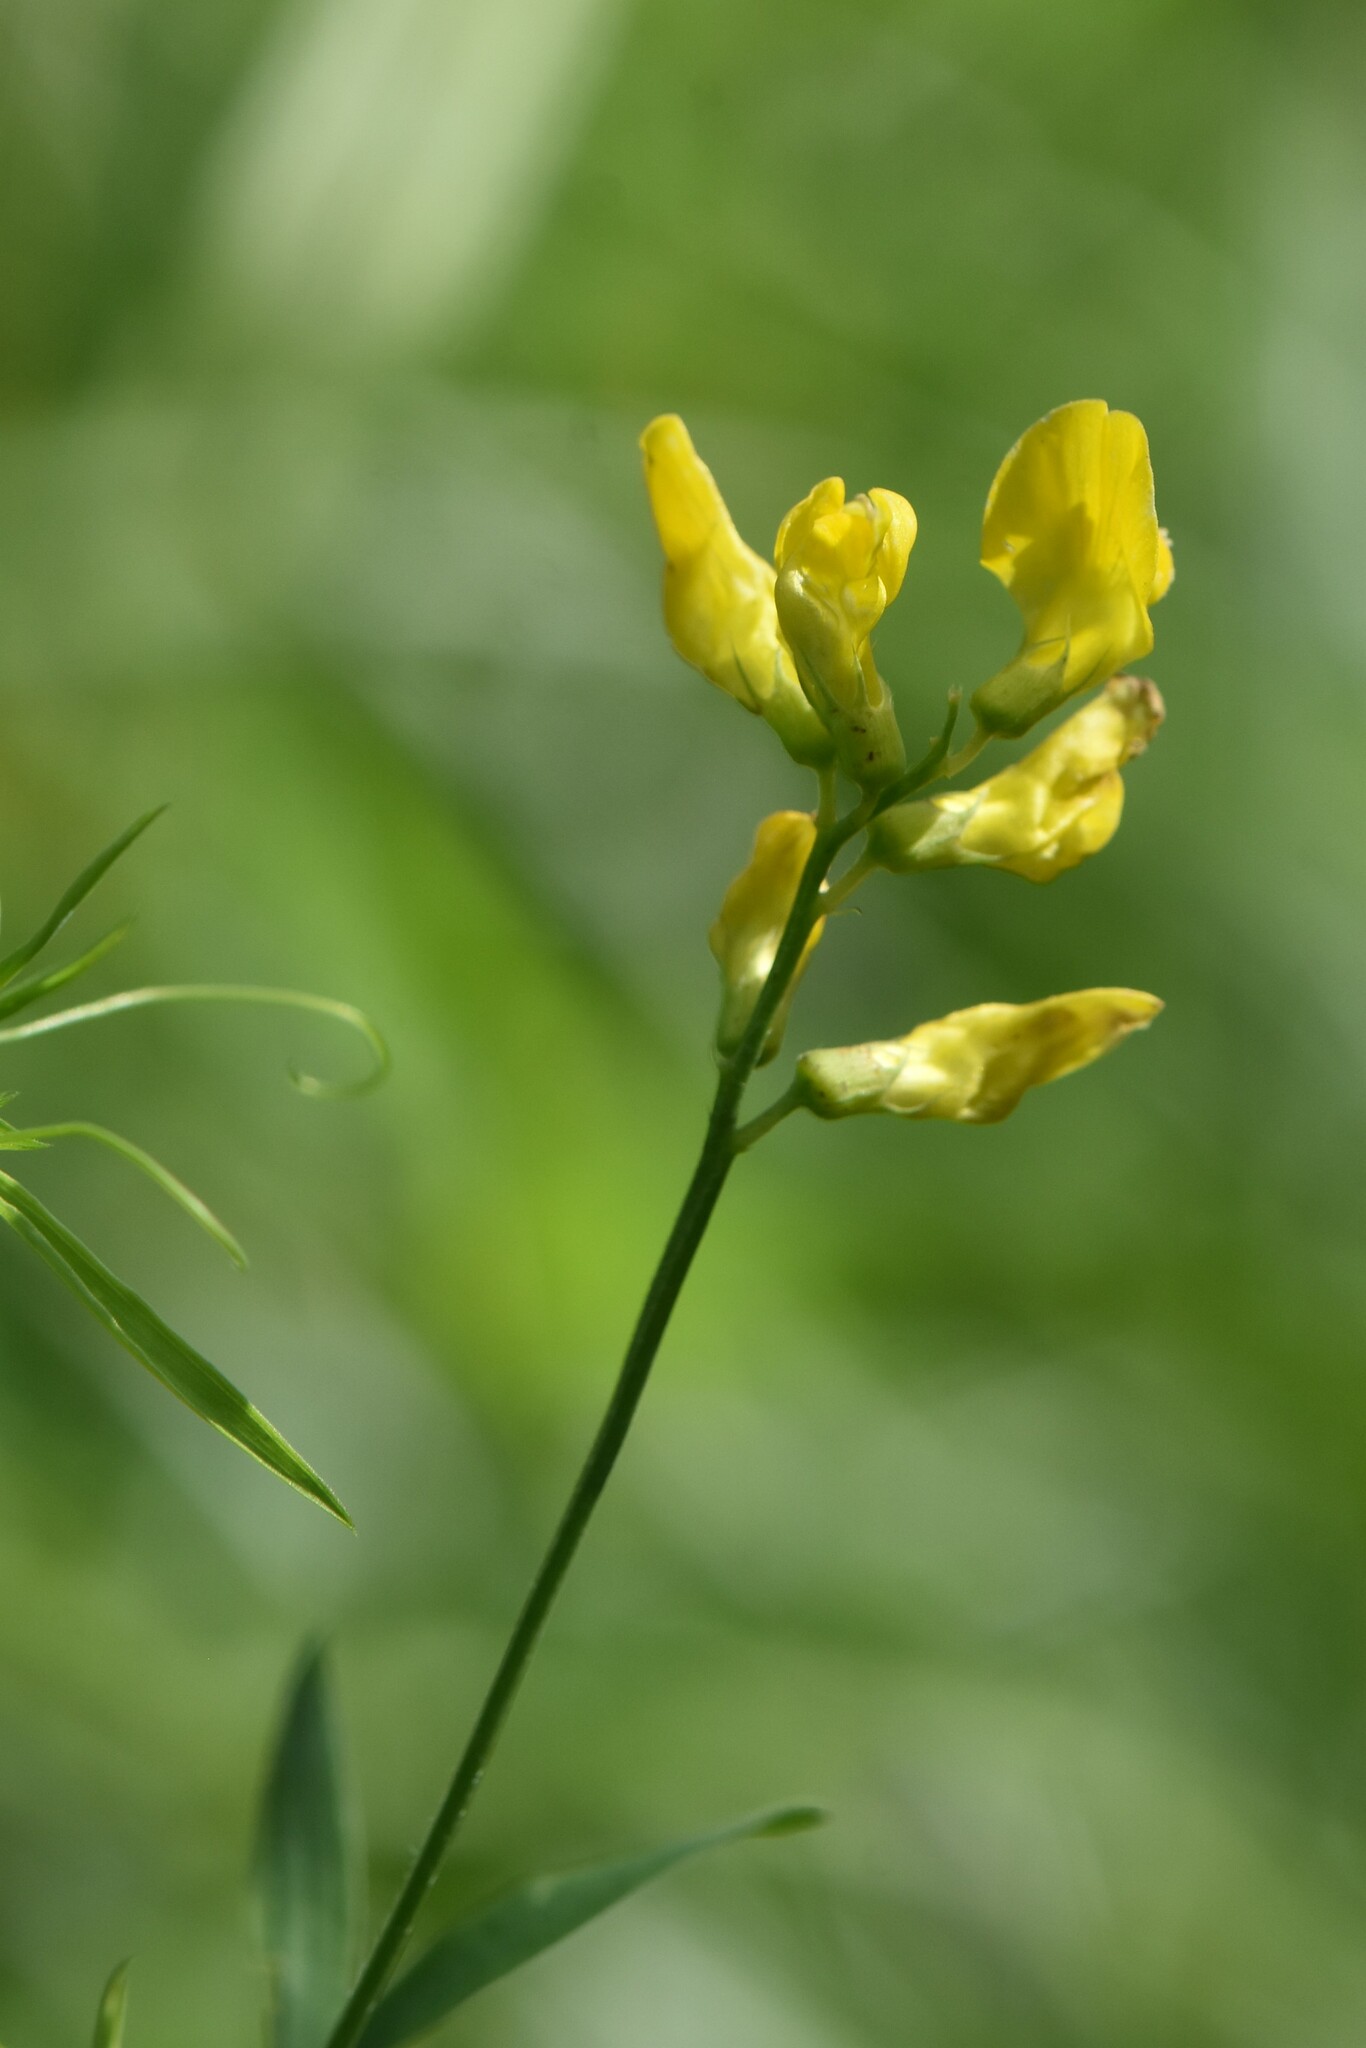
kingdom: Plantae
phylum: Tracheophyta
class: Magnoliopsida
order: Fabales
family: Fabaceae
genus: Lathyrus
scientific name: Lathyrus pratensis
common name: Meadow vetchling
